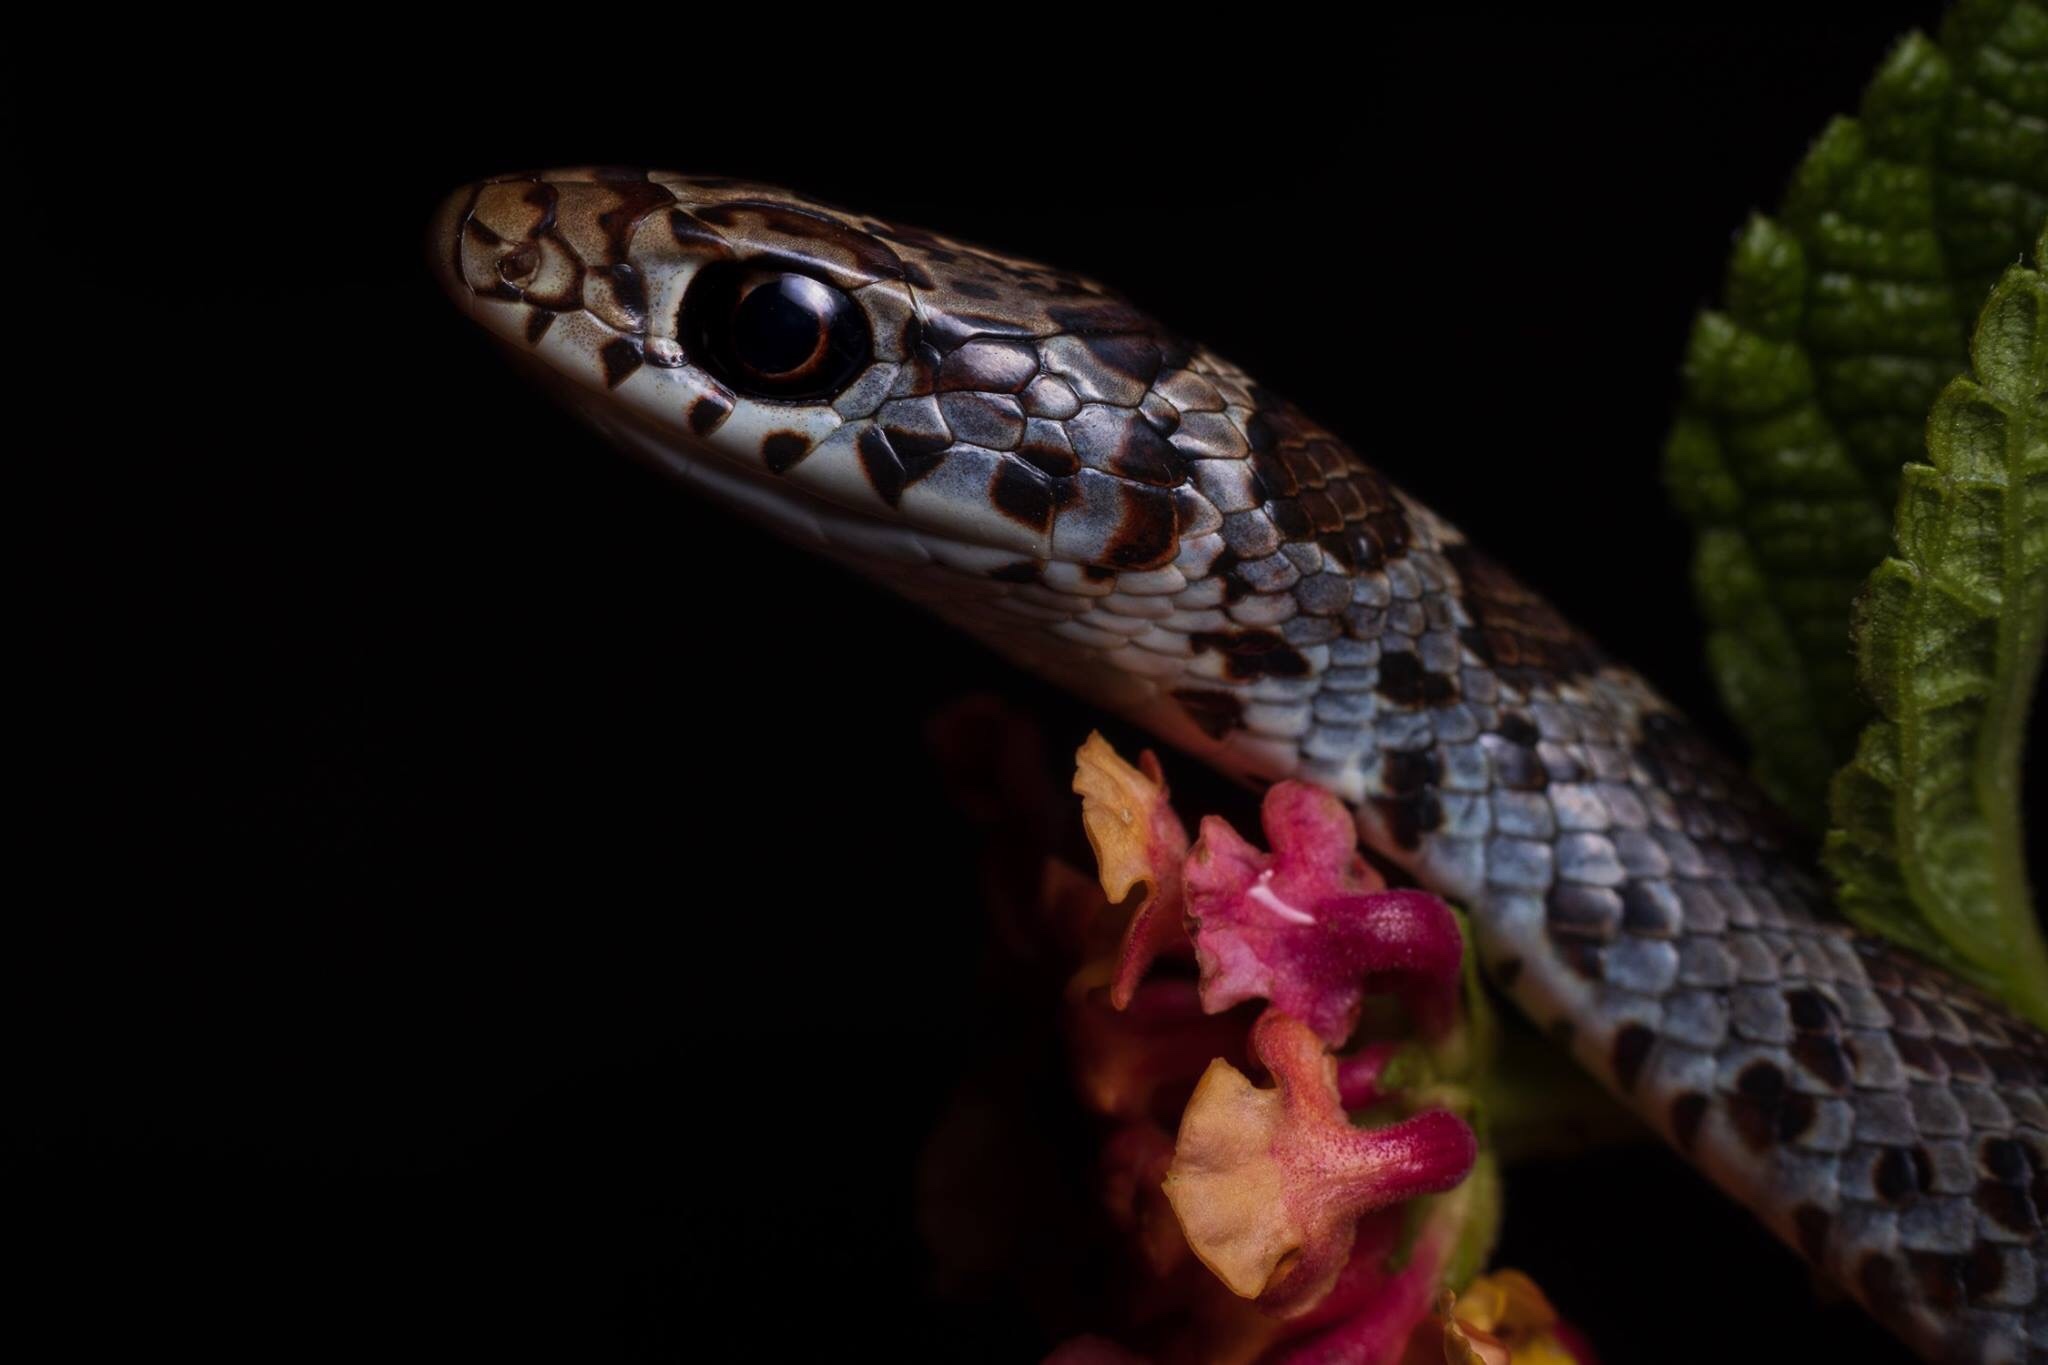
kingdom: Animalia
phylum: Chordata
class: Squamata
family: Colubridae
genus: Coluber
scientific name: Coluber constrictor
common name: Eastern racer
